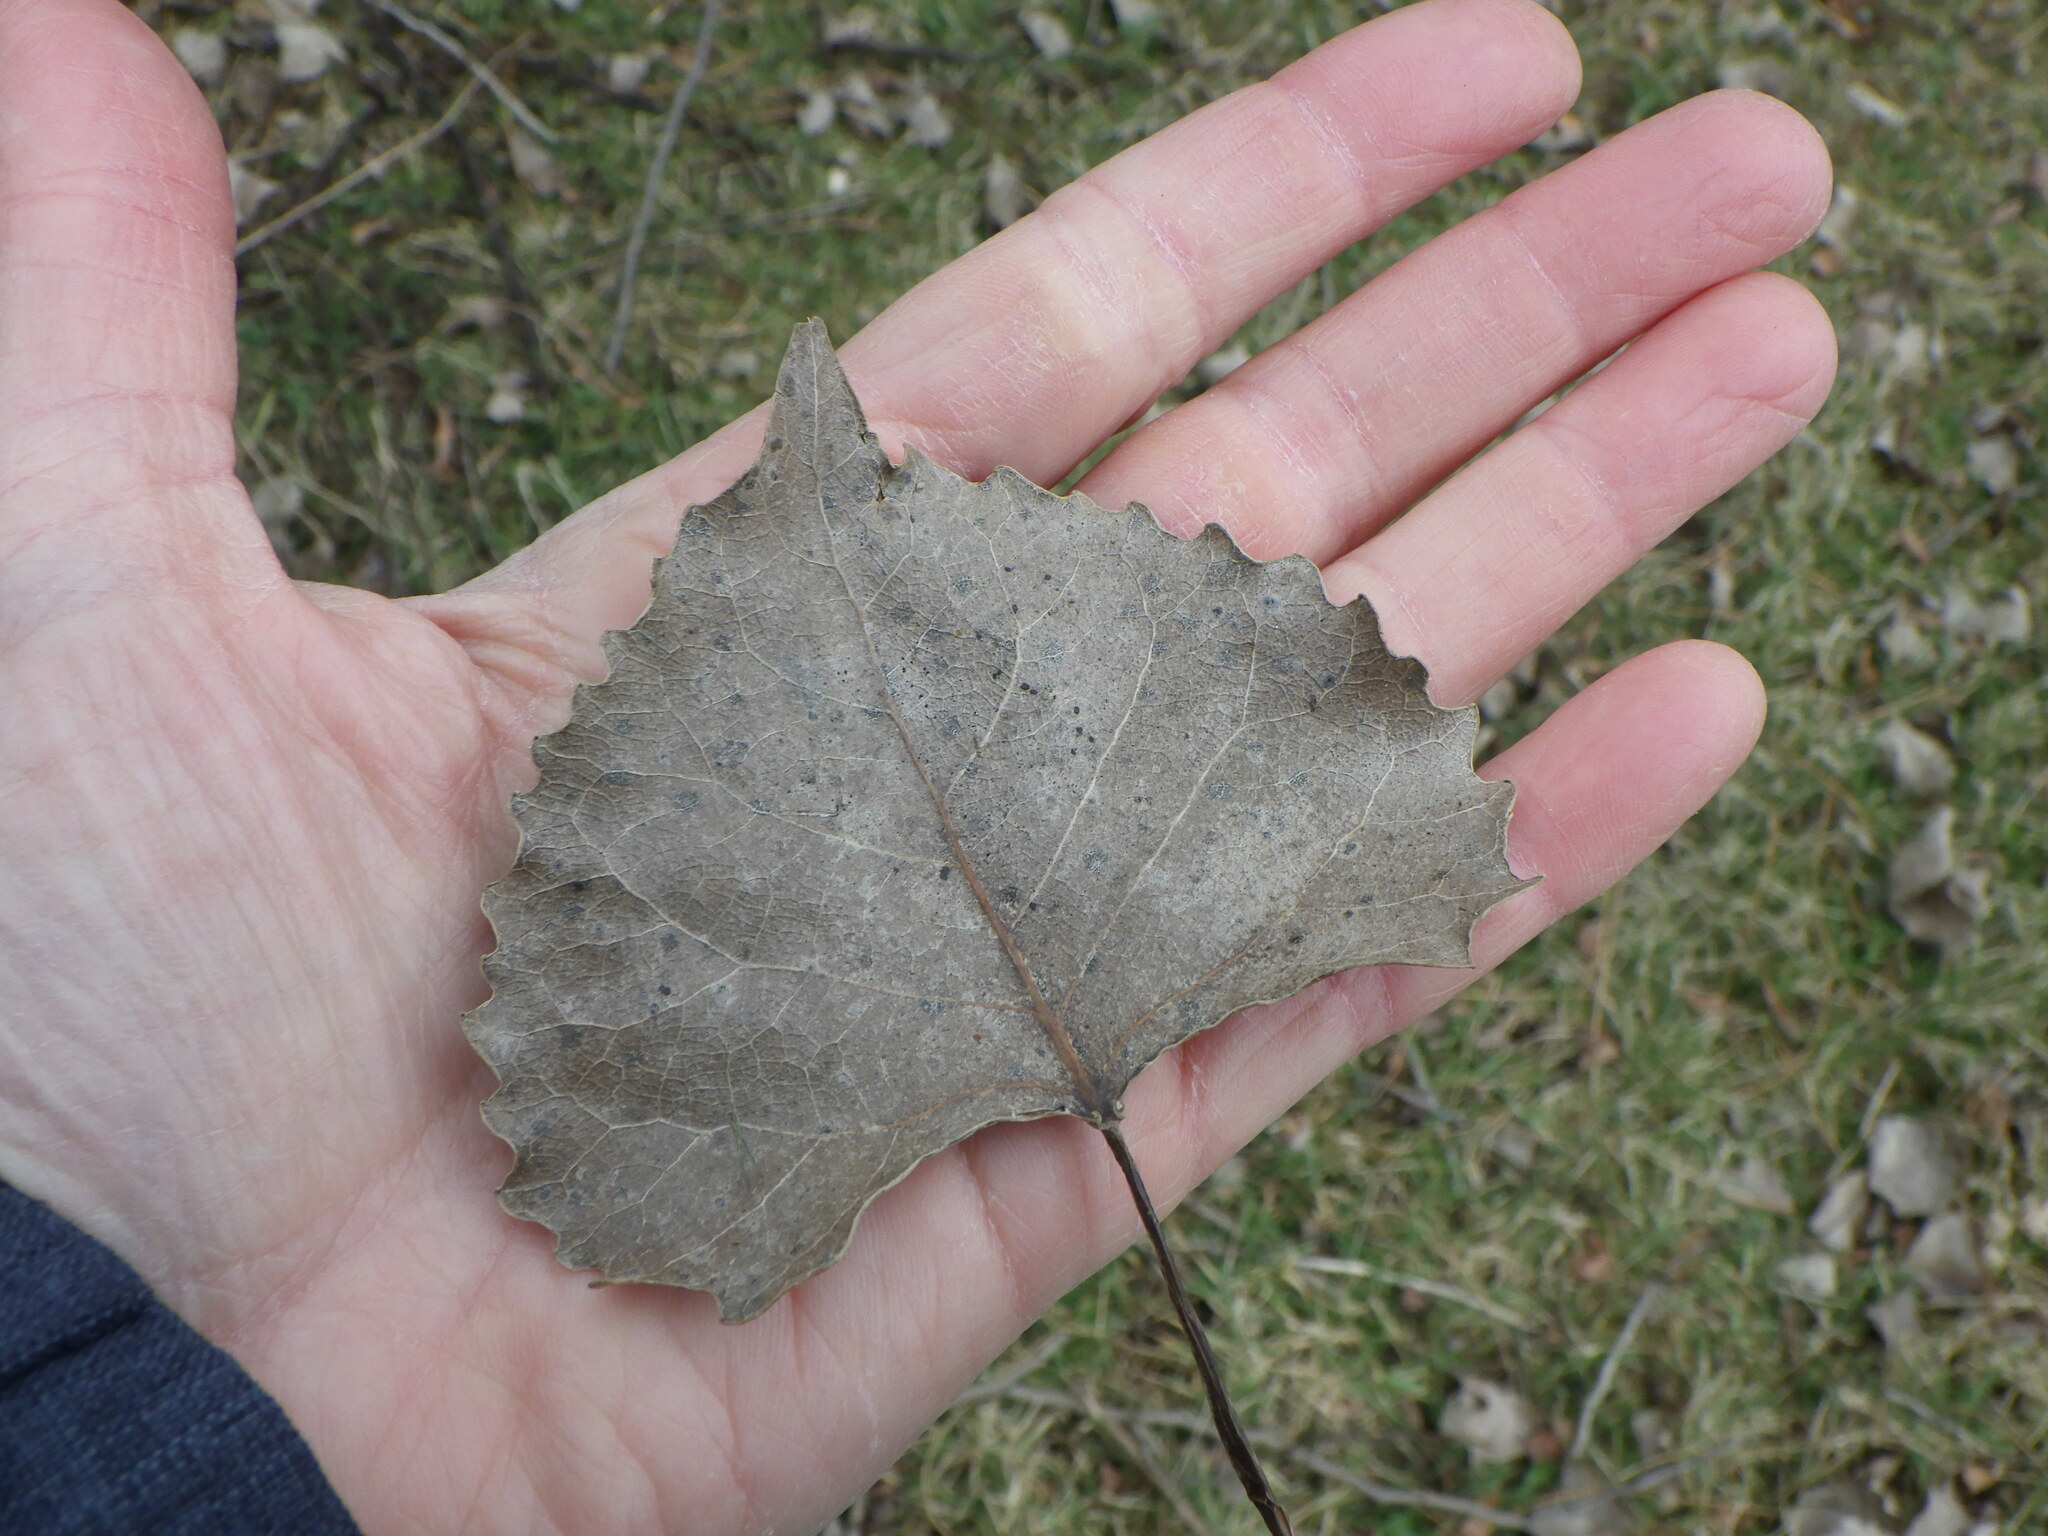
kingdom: Plantae
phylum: Tracheophyta
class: Magnoliopsida
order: Malpighiales
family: Salicaceae
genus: Populus
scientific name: Populus deltoides
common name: Eastern cottonwood
